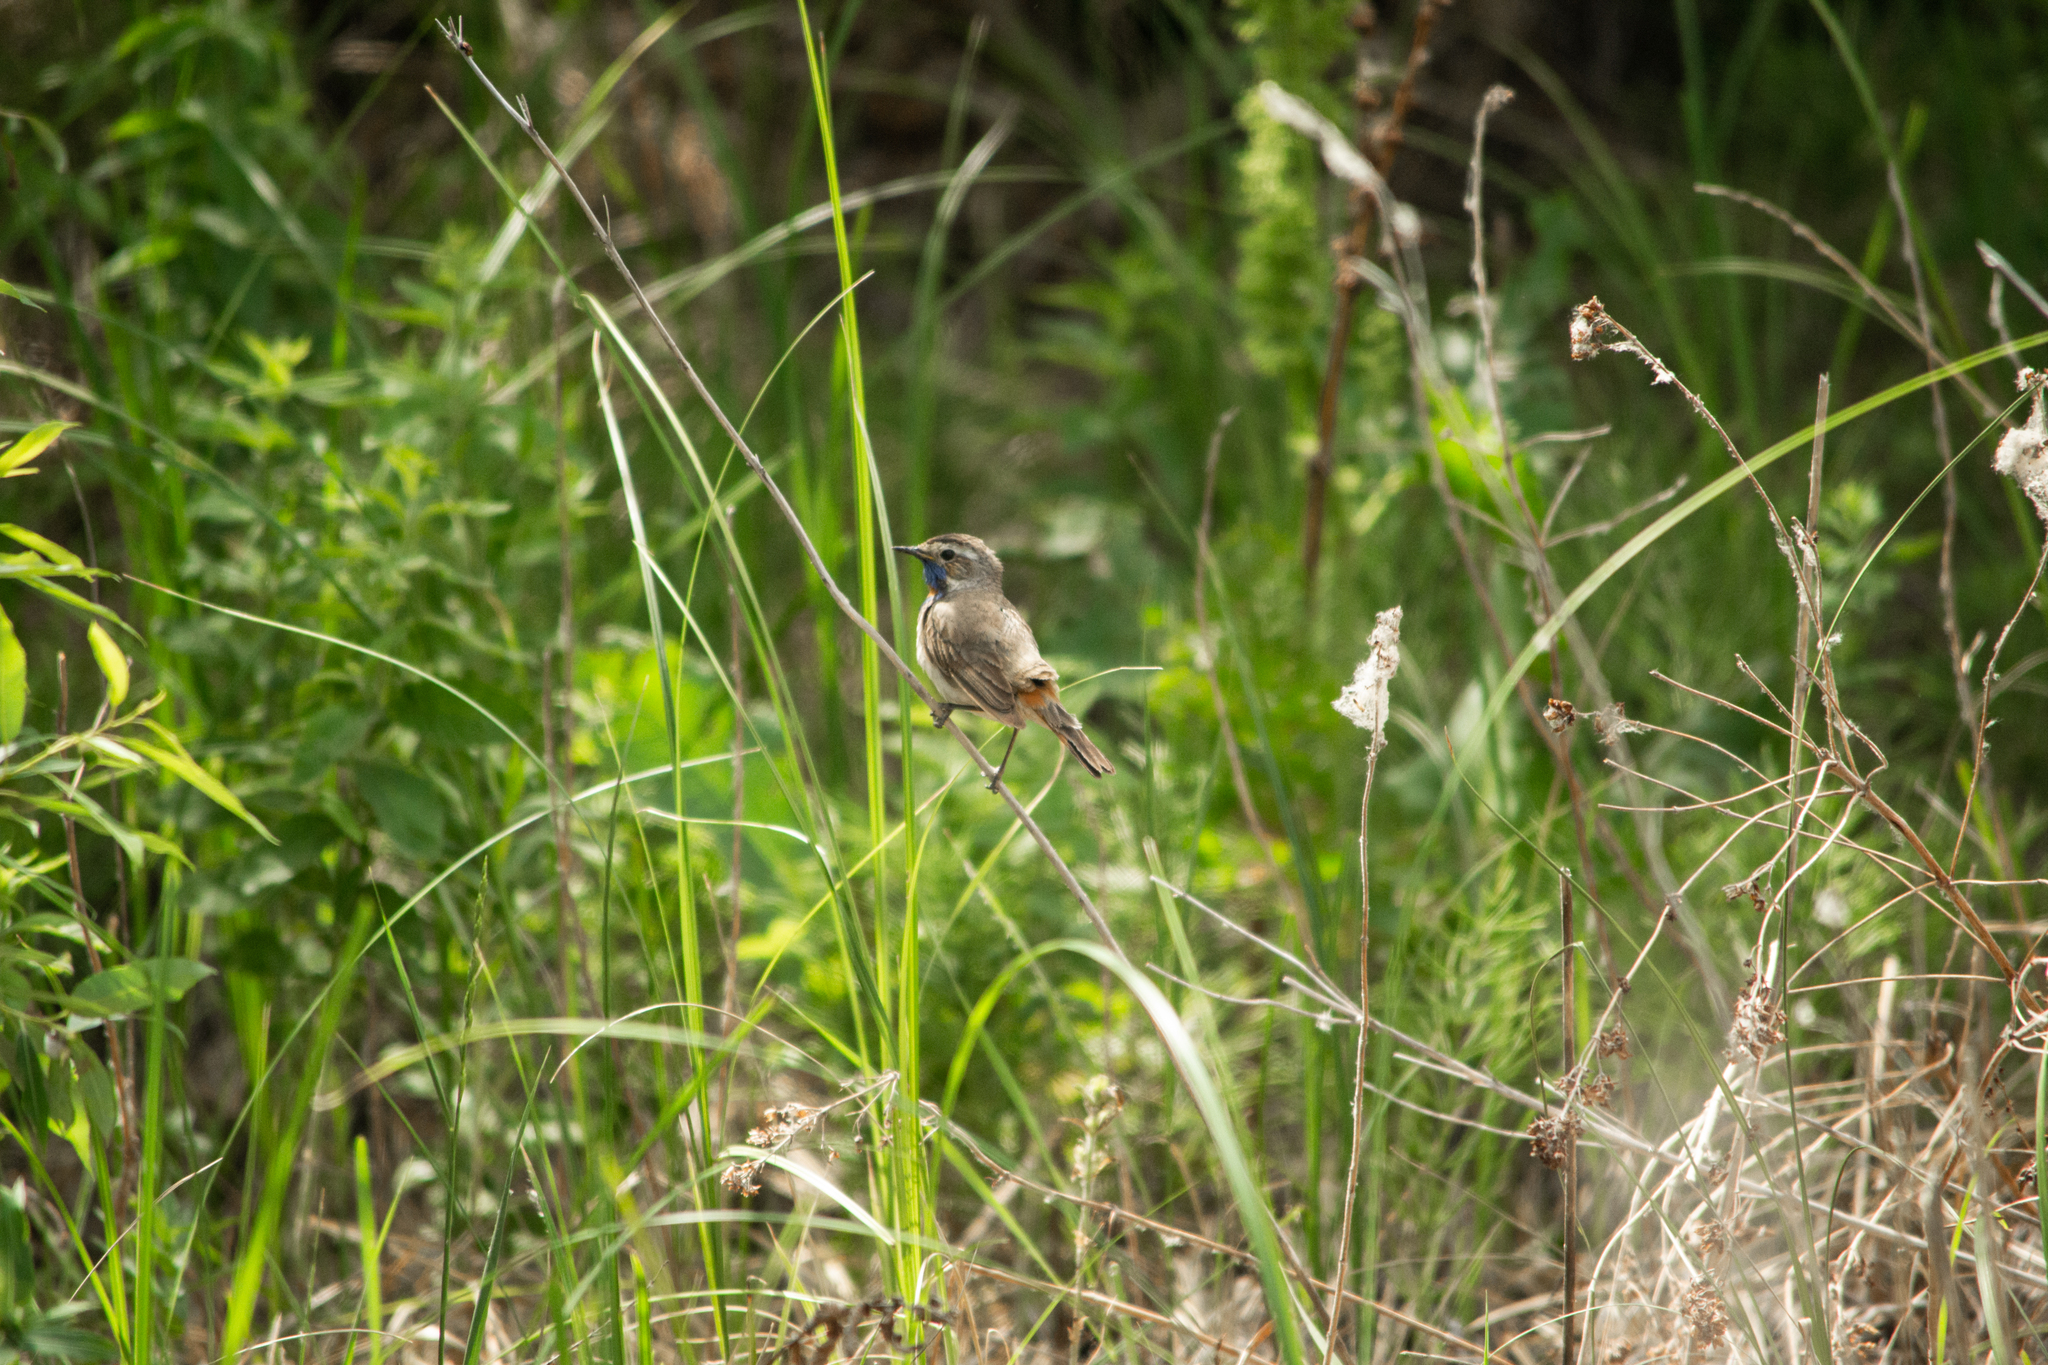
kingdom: Animalia
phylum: Chordata
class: Aves
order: Passeriformes
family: Muscicapidae
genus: Luscinia
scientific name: Luscinia svecica
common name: Bluethroat
